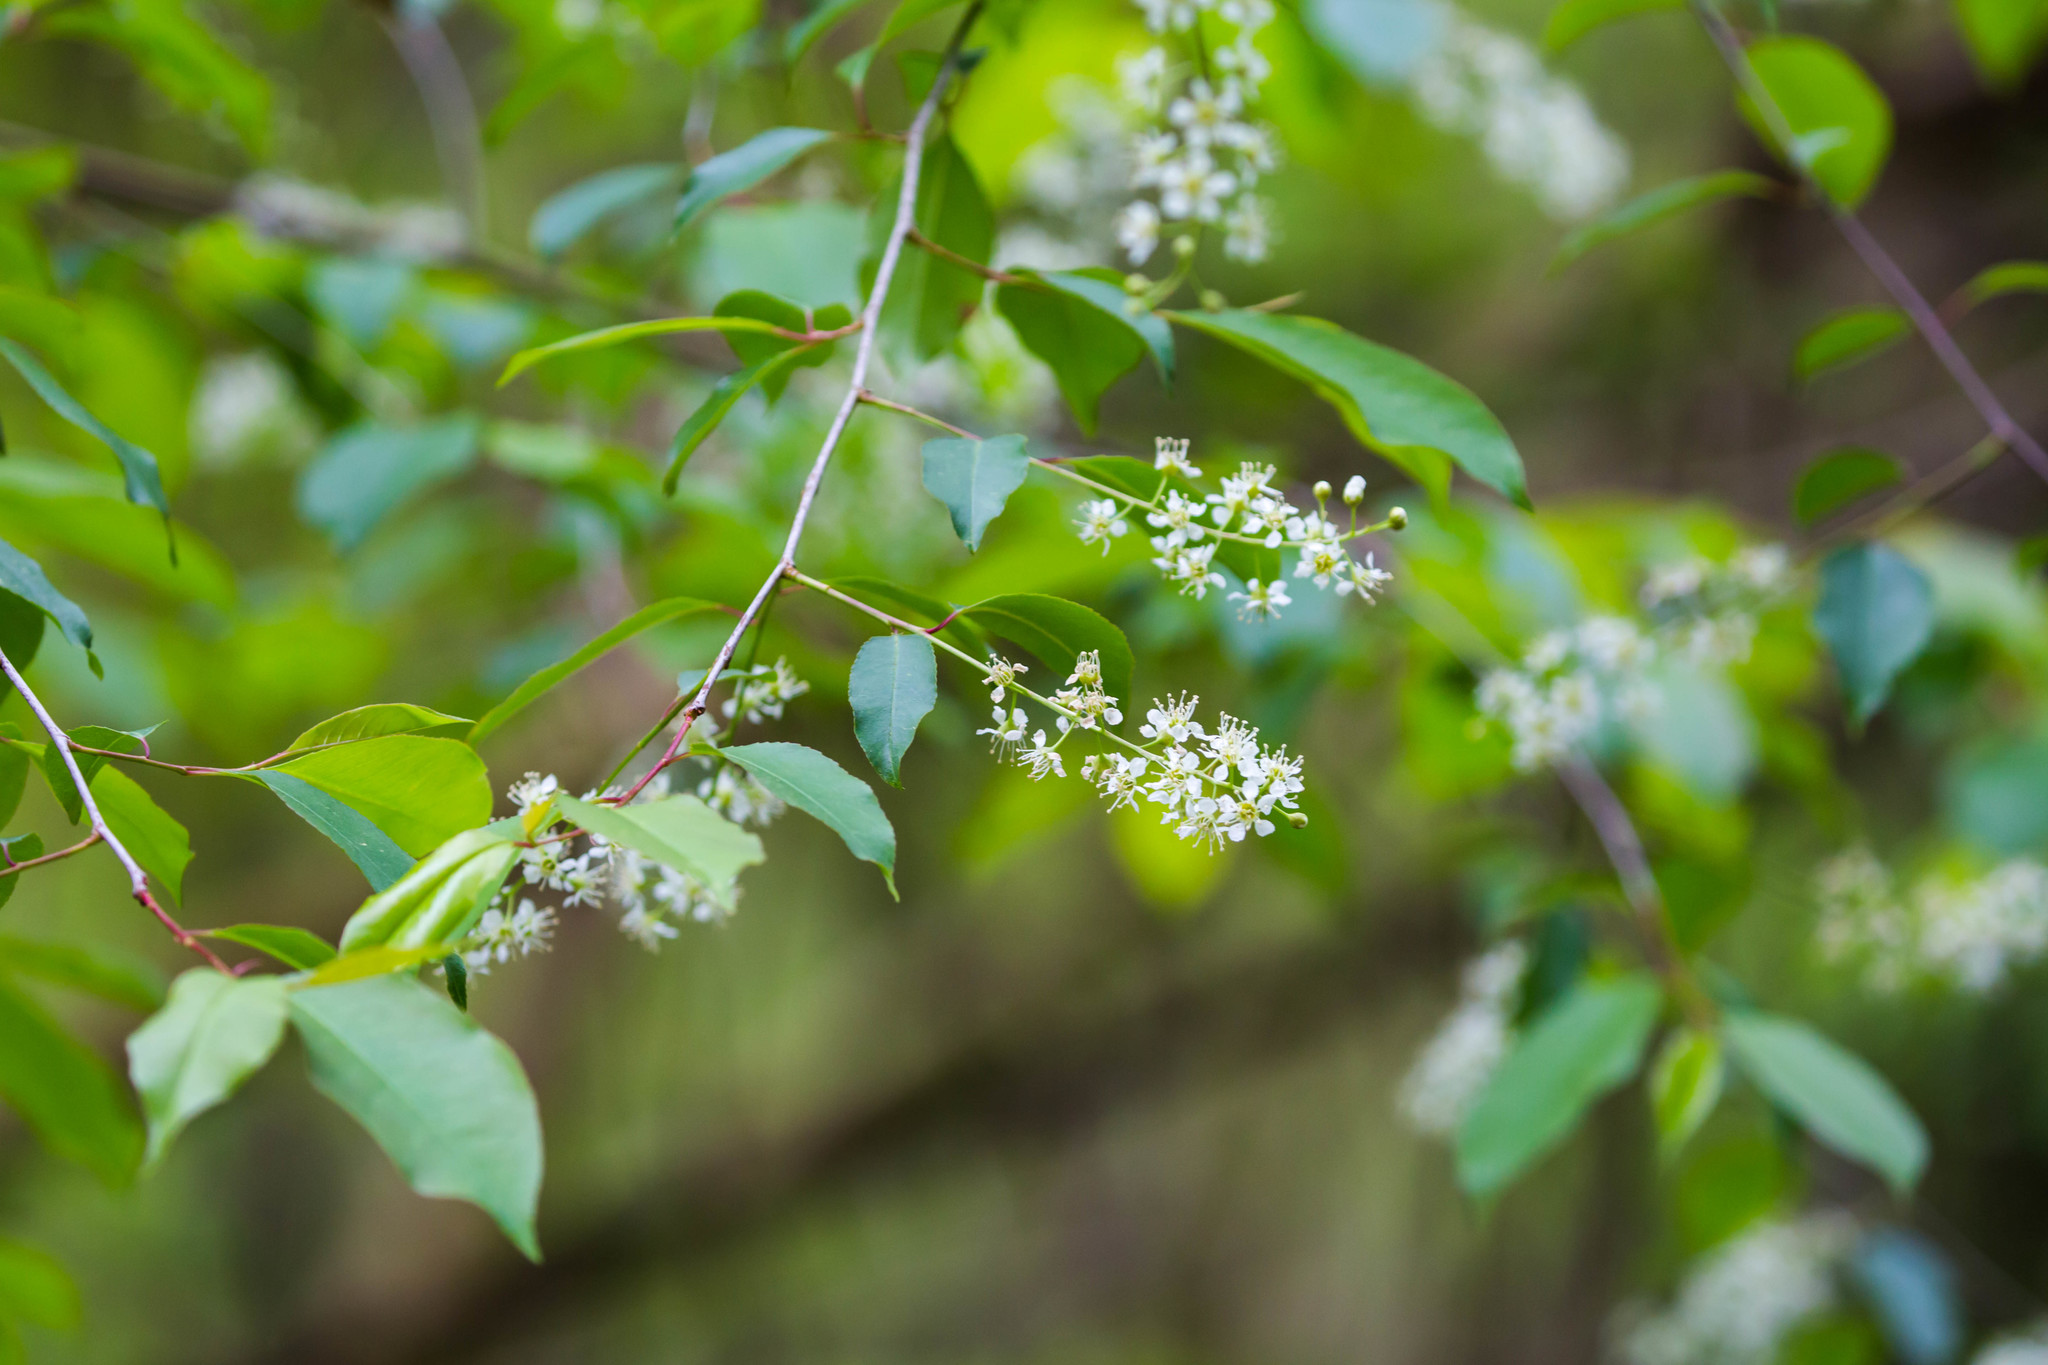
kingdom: Plantae
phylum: Tracheophyta
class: Magnoliopsida
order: Rosales
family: Rosaceae
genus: Prunus
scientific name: Prunus serotina
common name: Black cherry
